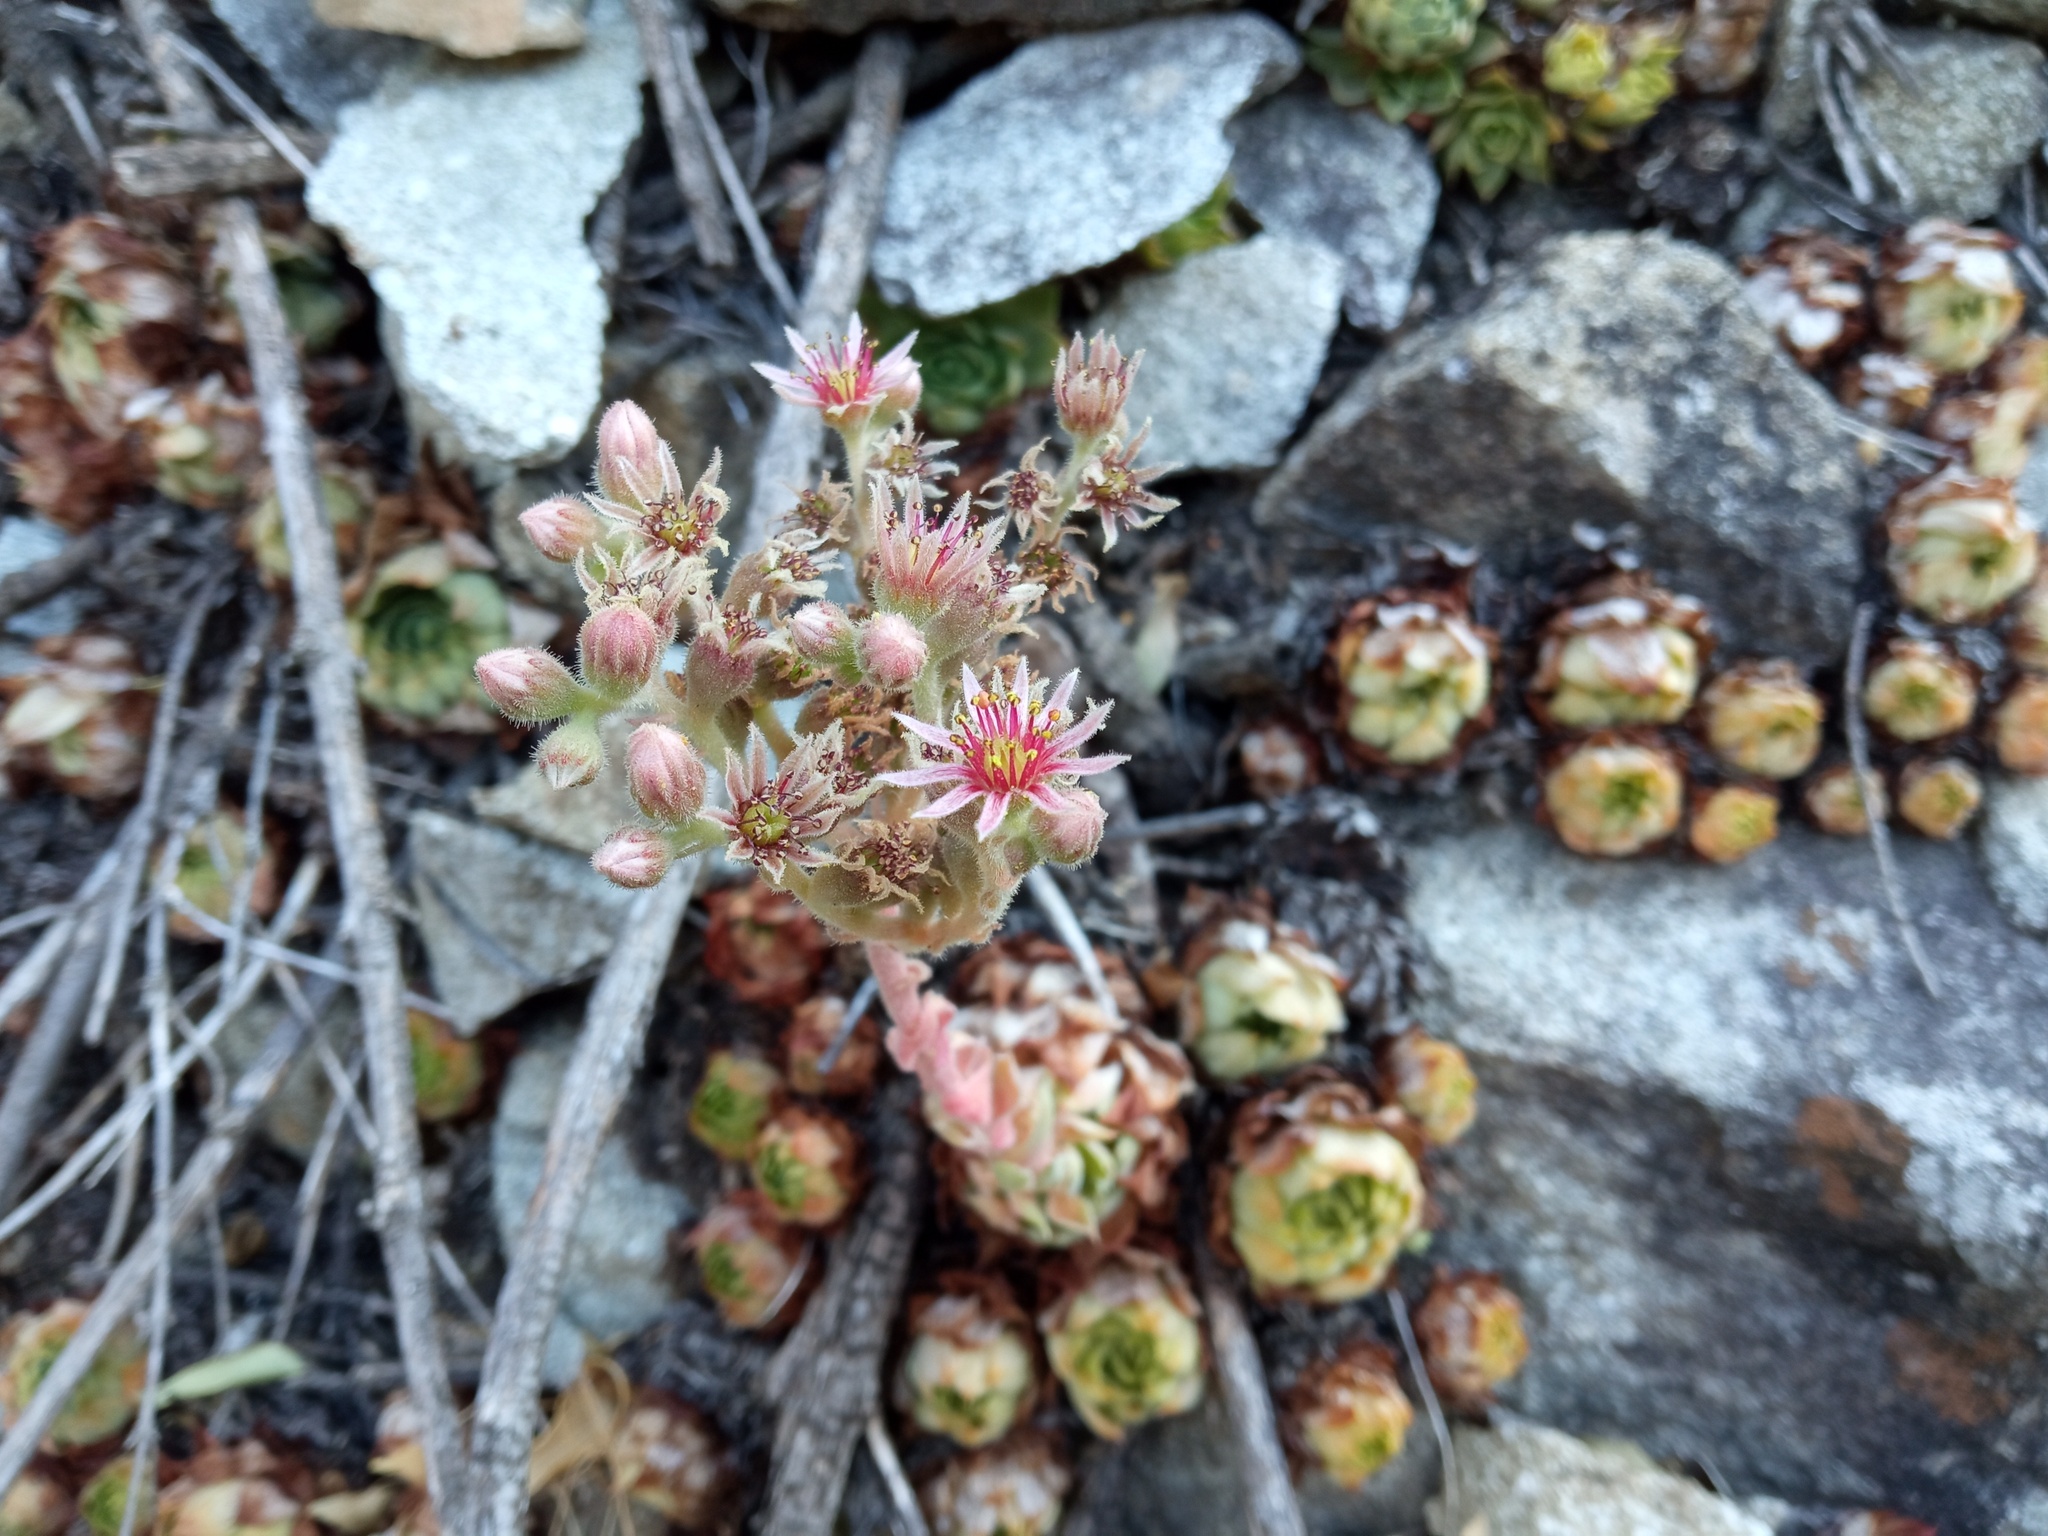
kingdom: Plantae
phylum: Tracheophyta
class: Magnoliopsida
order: Saxifragales
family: Crassulaceae
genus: Sempervivum
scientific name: Sempervivum tectorum
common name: House-leek
